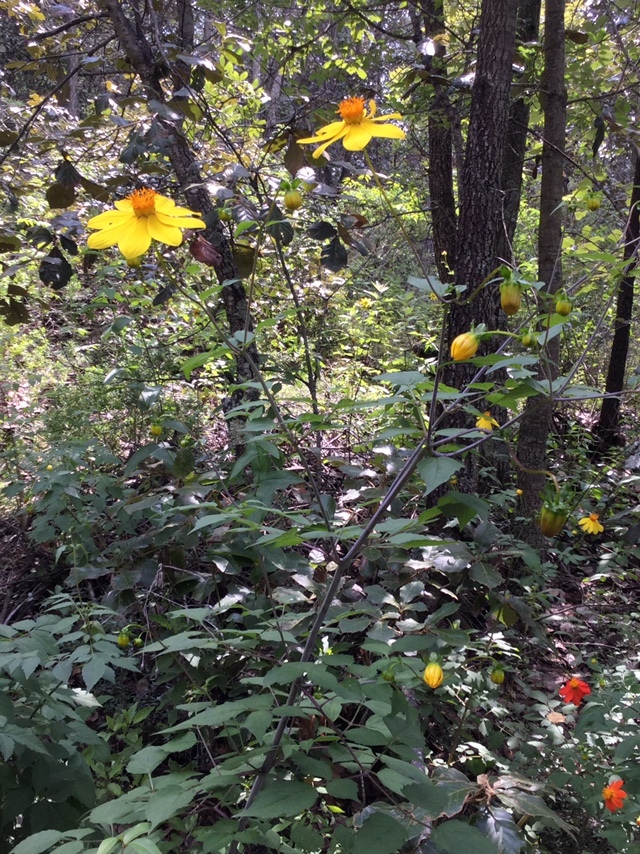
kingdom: Plantae
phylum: Tracheophyta
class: Magnoliopsida
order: Asterales
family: Asteraceae
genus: Dahlia
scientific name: Dahlia coccinea
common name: Red dahlia
